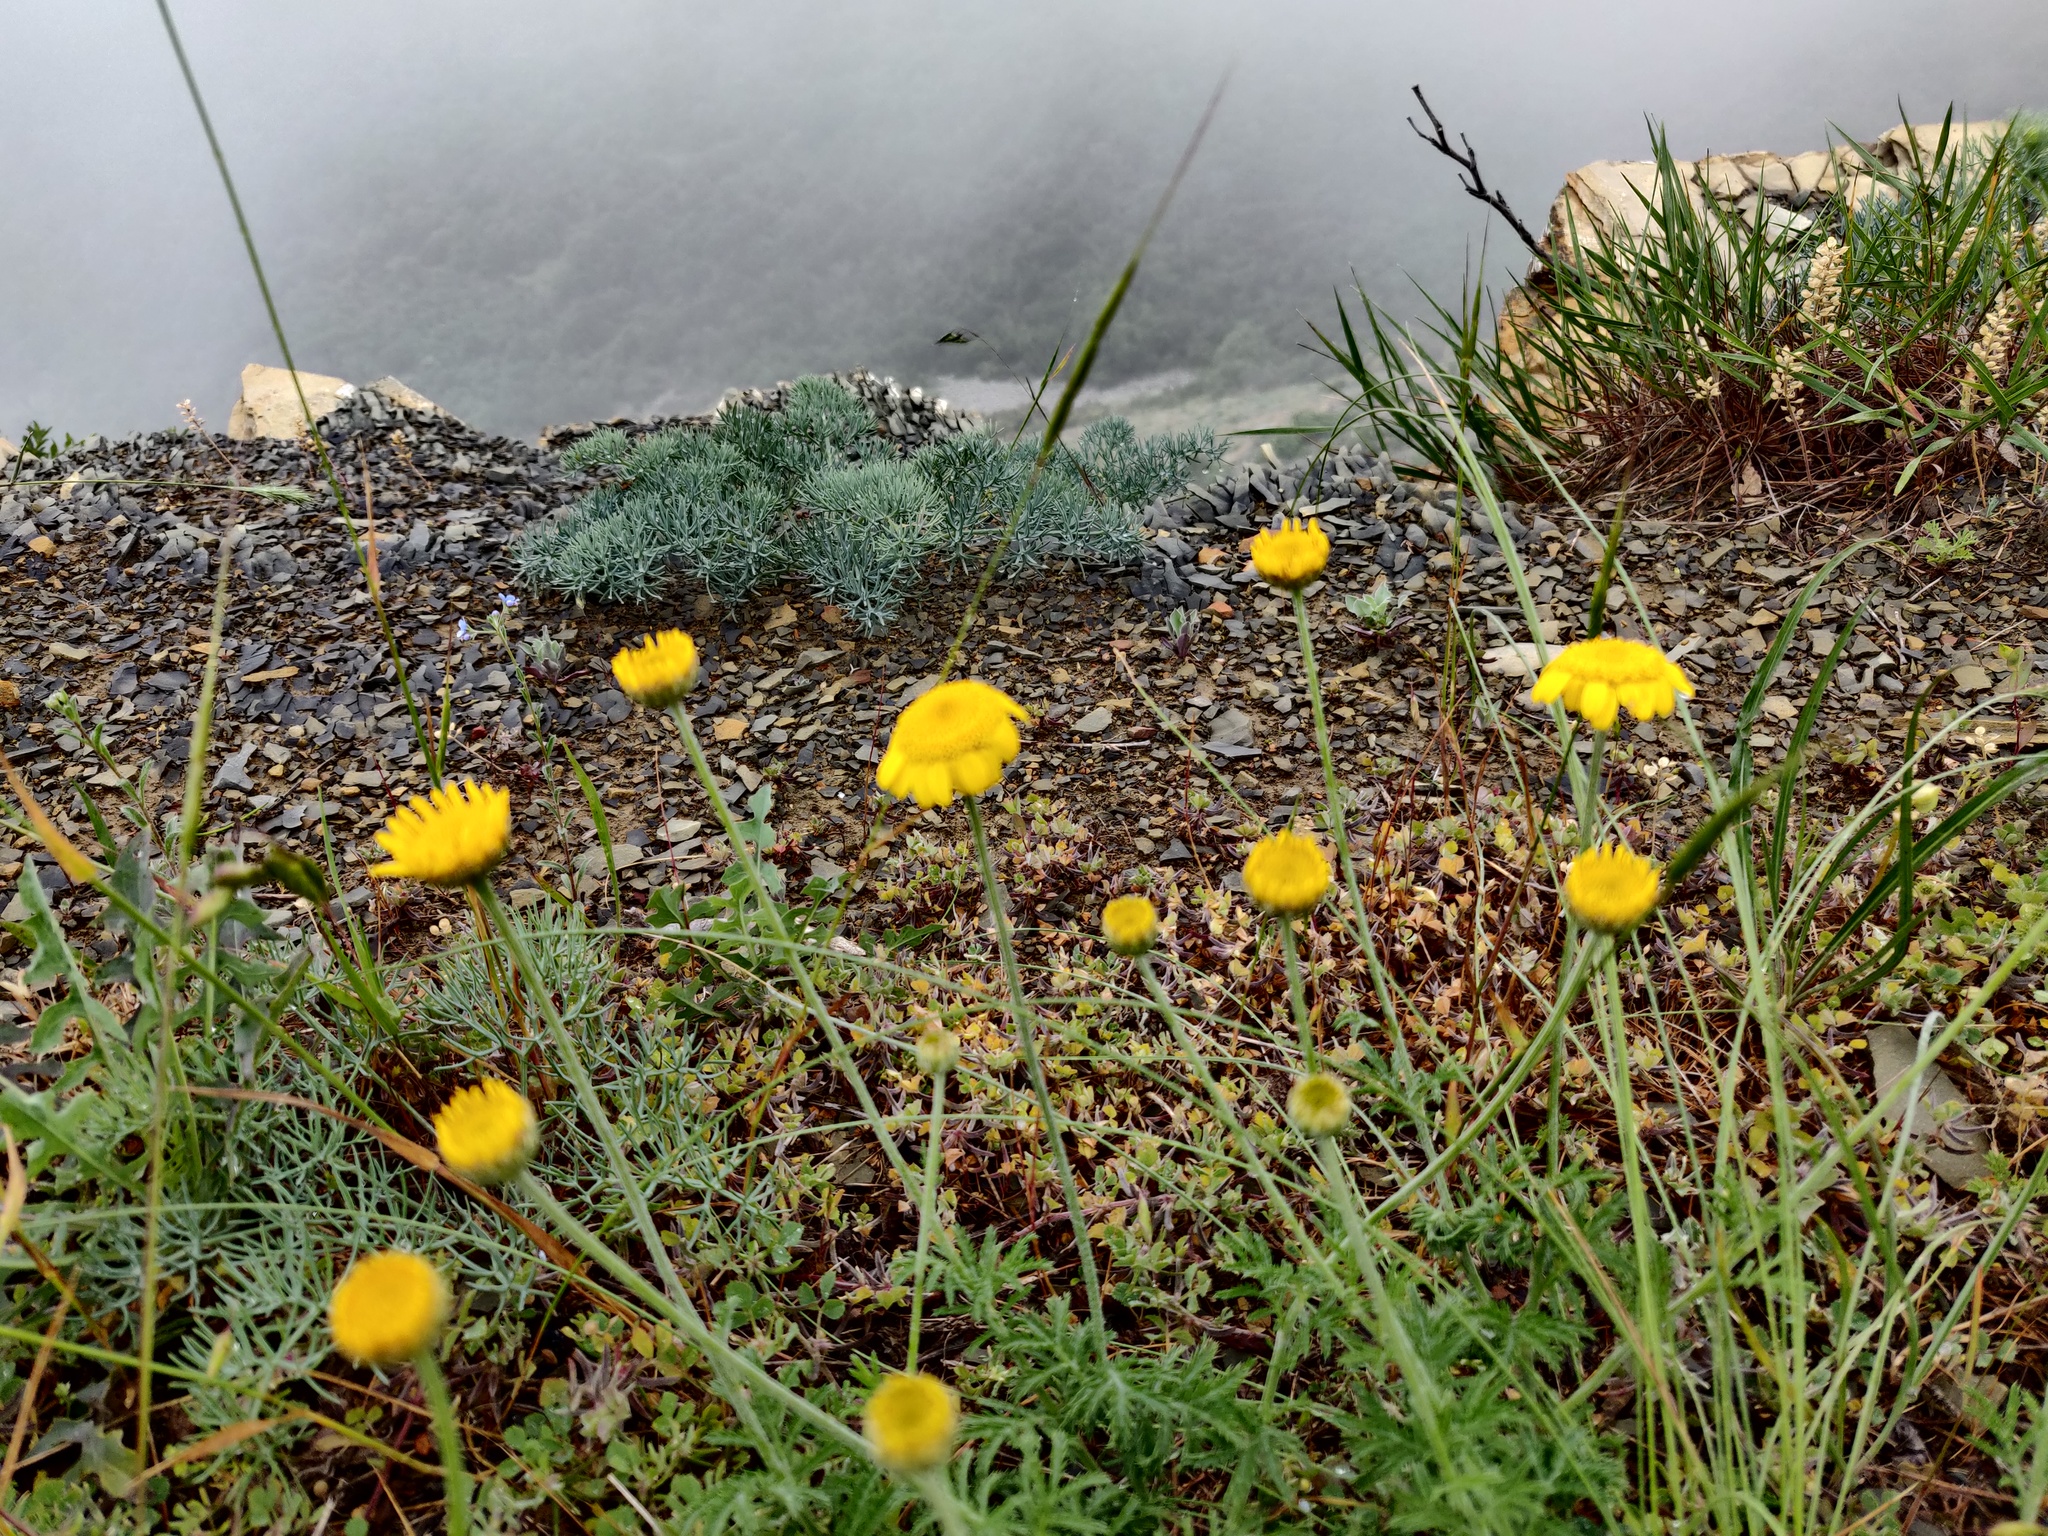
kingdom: Plantae
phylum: Tracheophyta
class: Magnoliopsida
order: Asterales
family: Asteraceae
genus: Cota
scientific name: Cota tinctoria
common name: Golden chamomile
